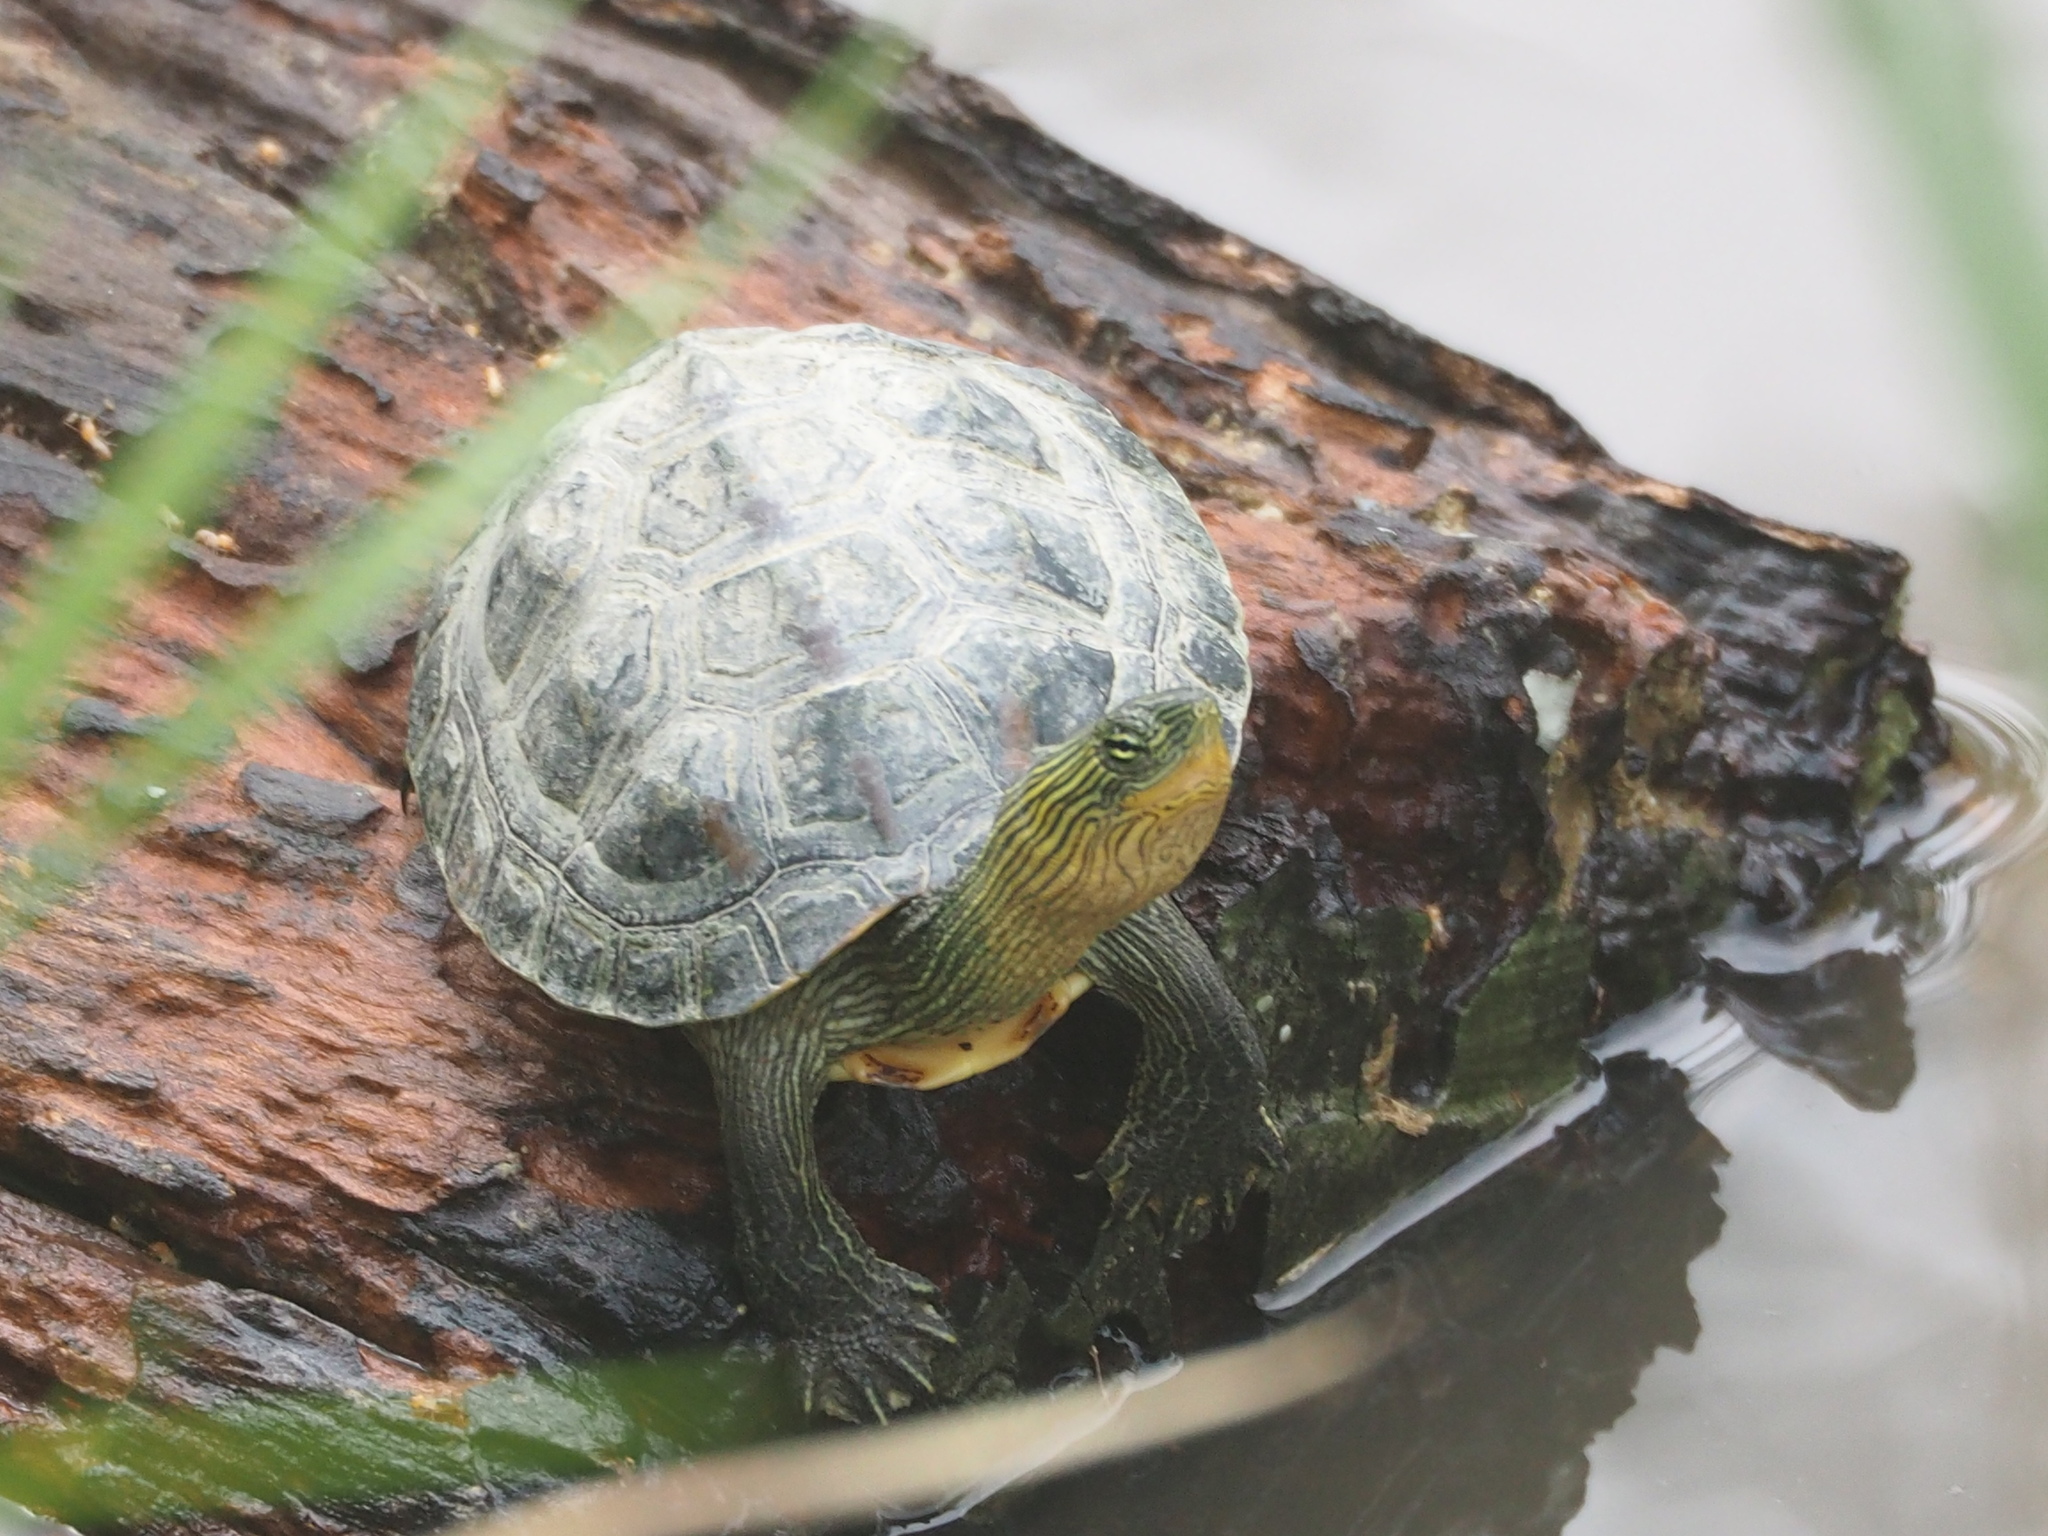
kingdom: Animalia
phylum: Chordata
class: Testudines
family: Geoemydidae
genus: Mauremys
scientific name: Mauremys sinensis
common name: Chinese stripe-necked turtle
